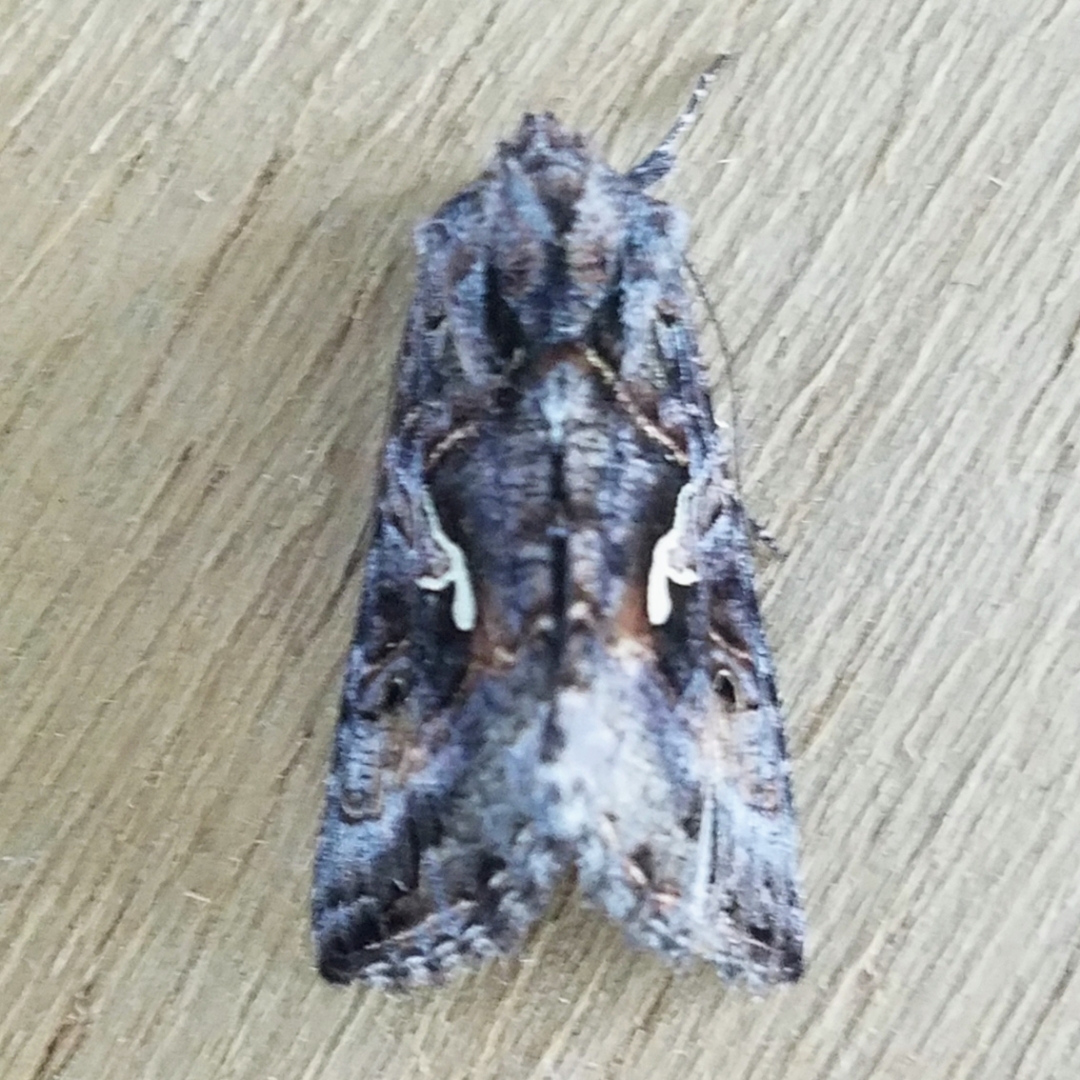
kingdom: Animalia
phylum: Arthropoda
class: Insecta
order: Lepidoptera
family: Noctuidae
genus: Autographa
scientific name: Autographa californica
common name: Alfalfa looper
